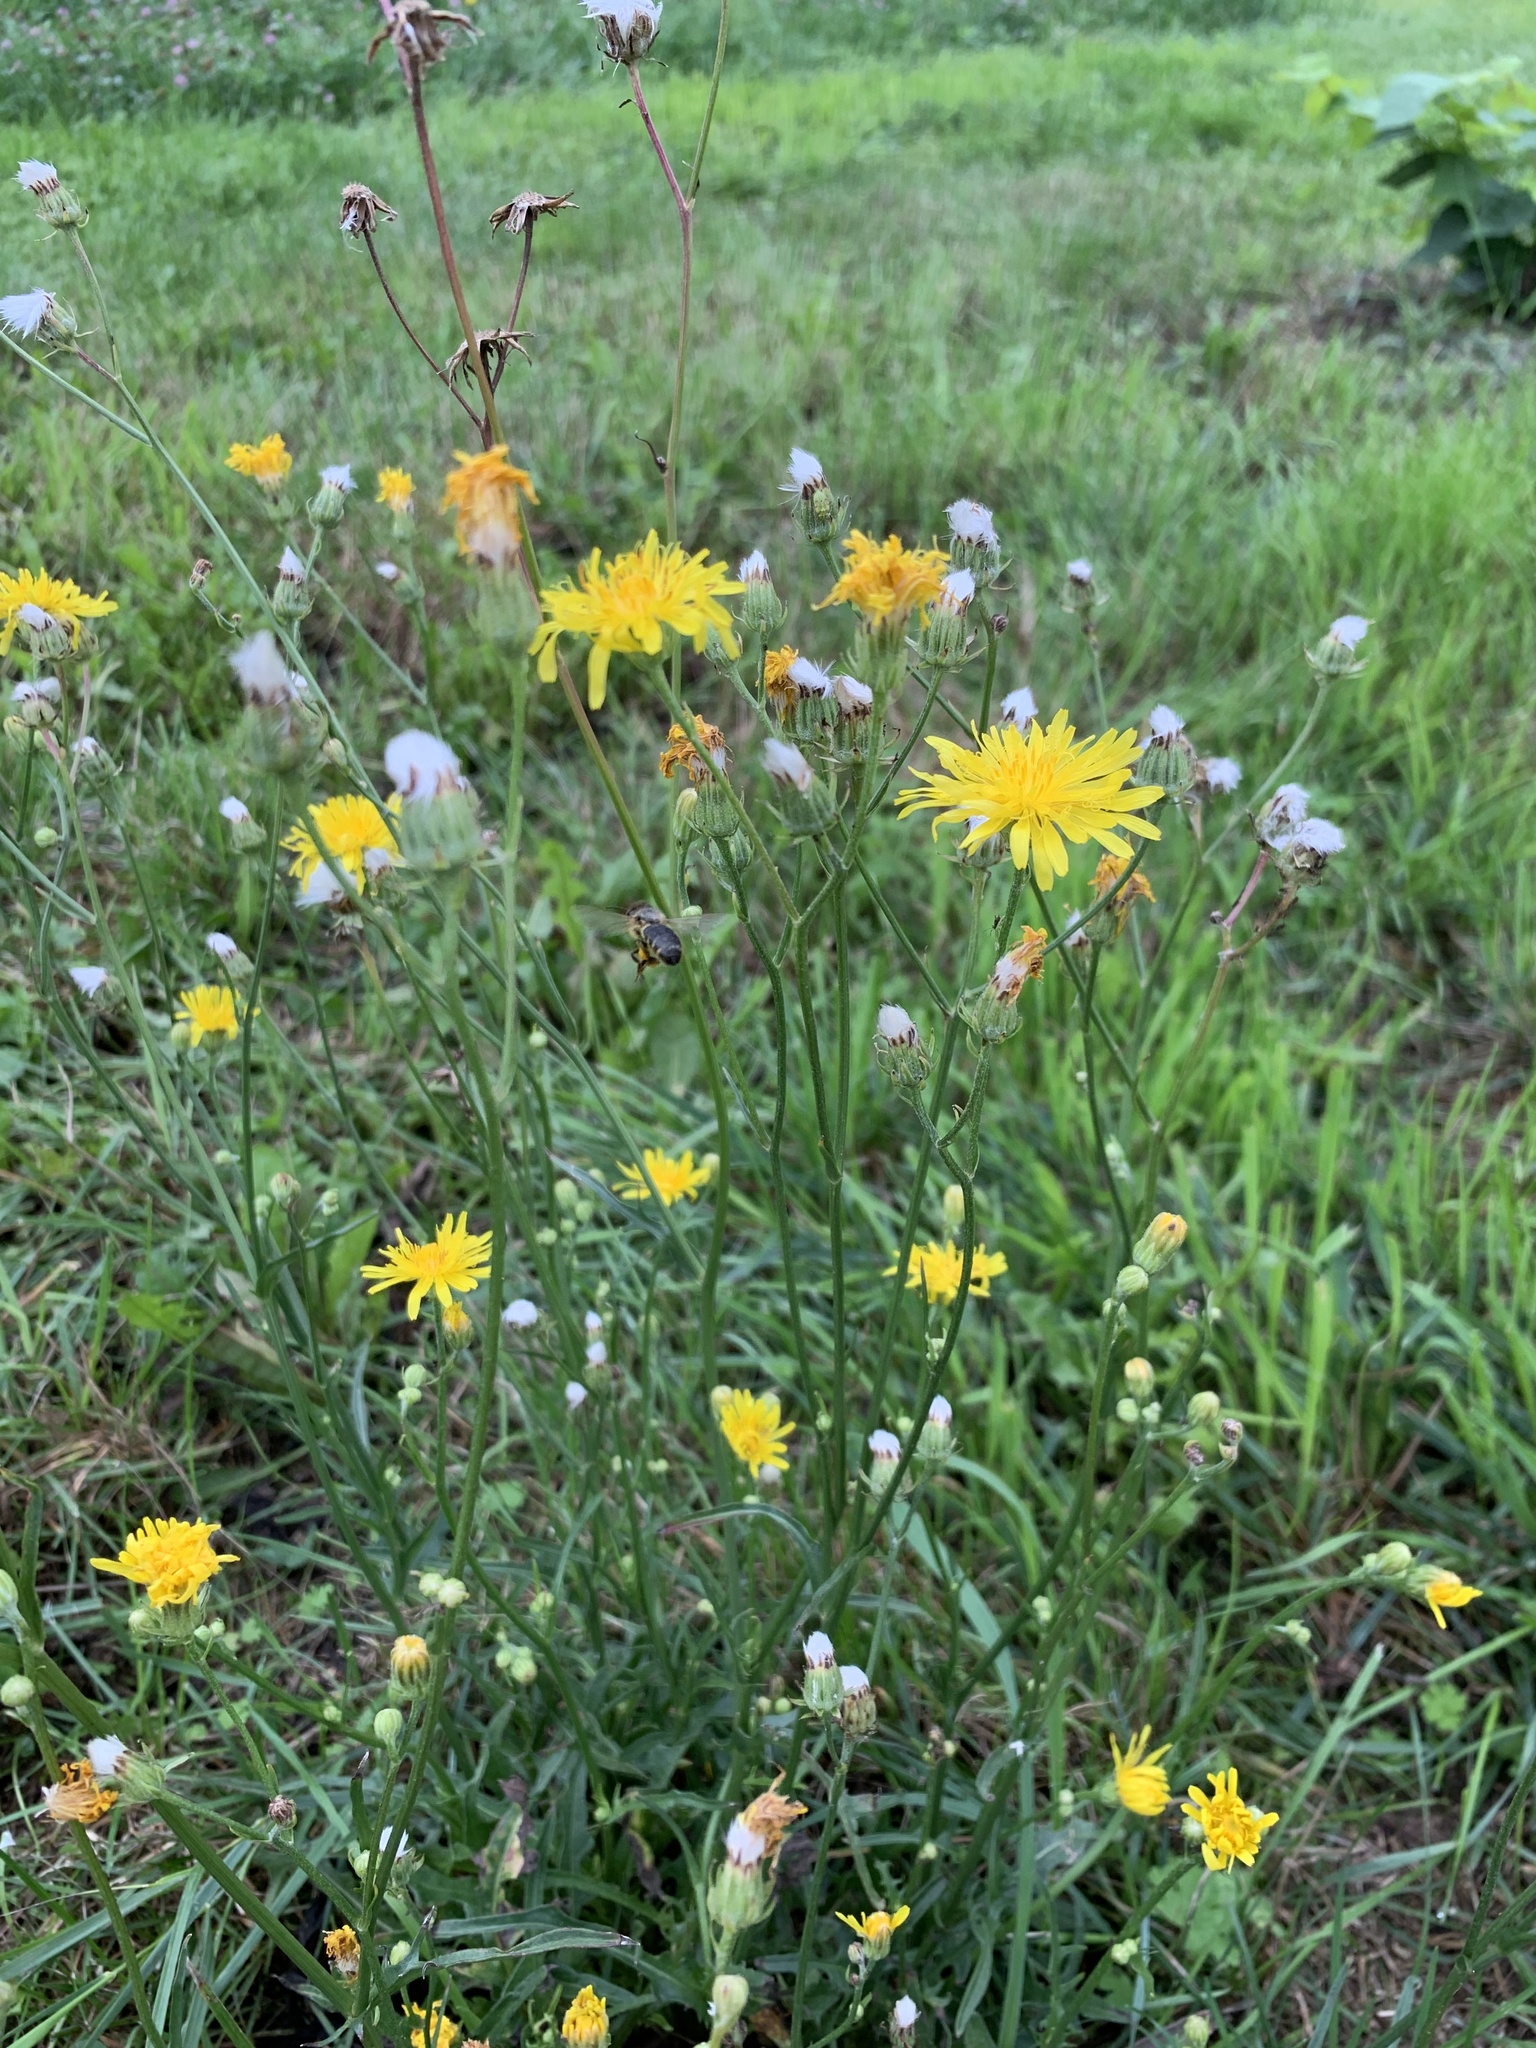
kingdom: Plantae
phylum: Tracheophyta
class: Magnoliopsida
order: Asterales
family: Asteraceae
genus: Crepis
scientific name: Crepis biennis
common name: Rough hawk's-beard
